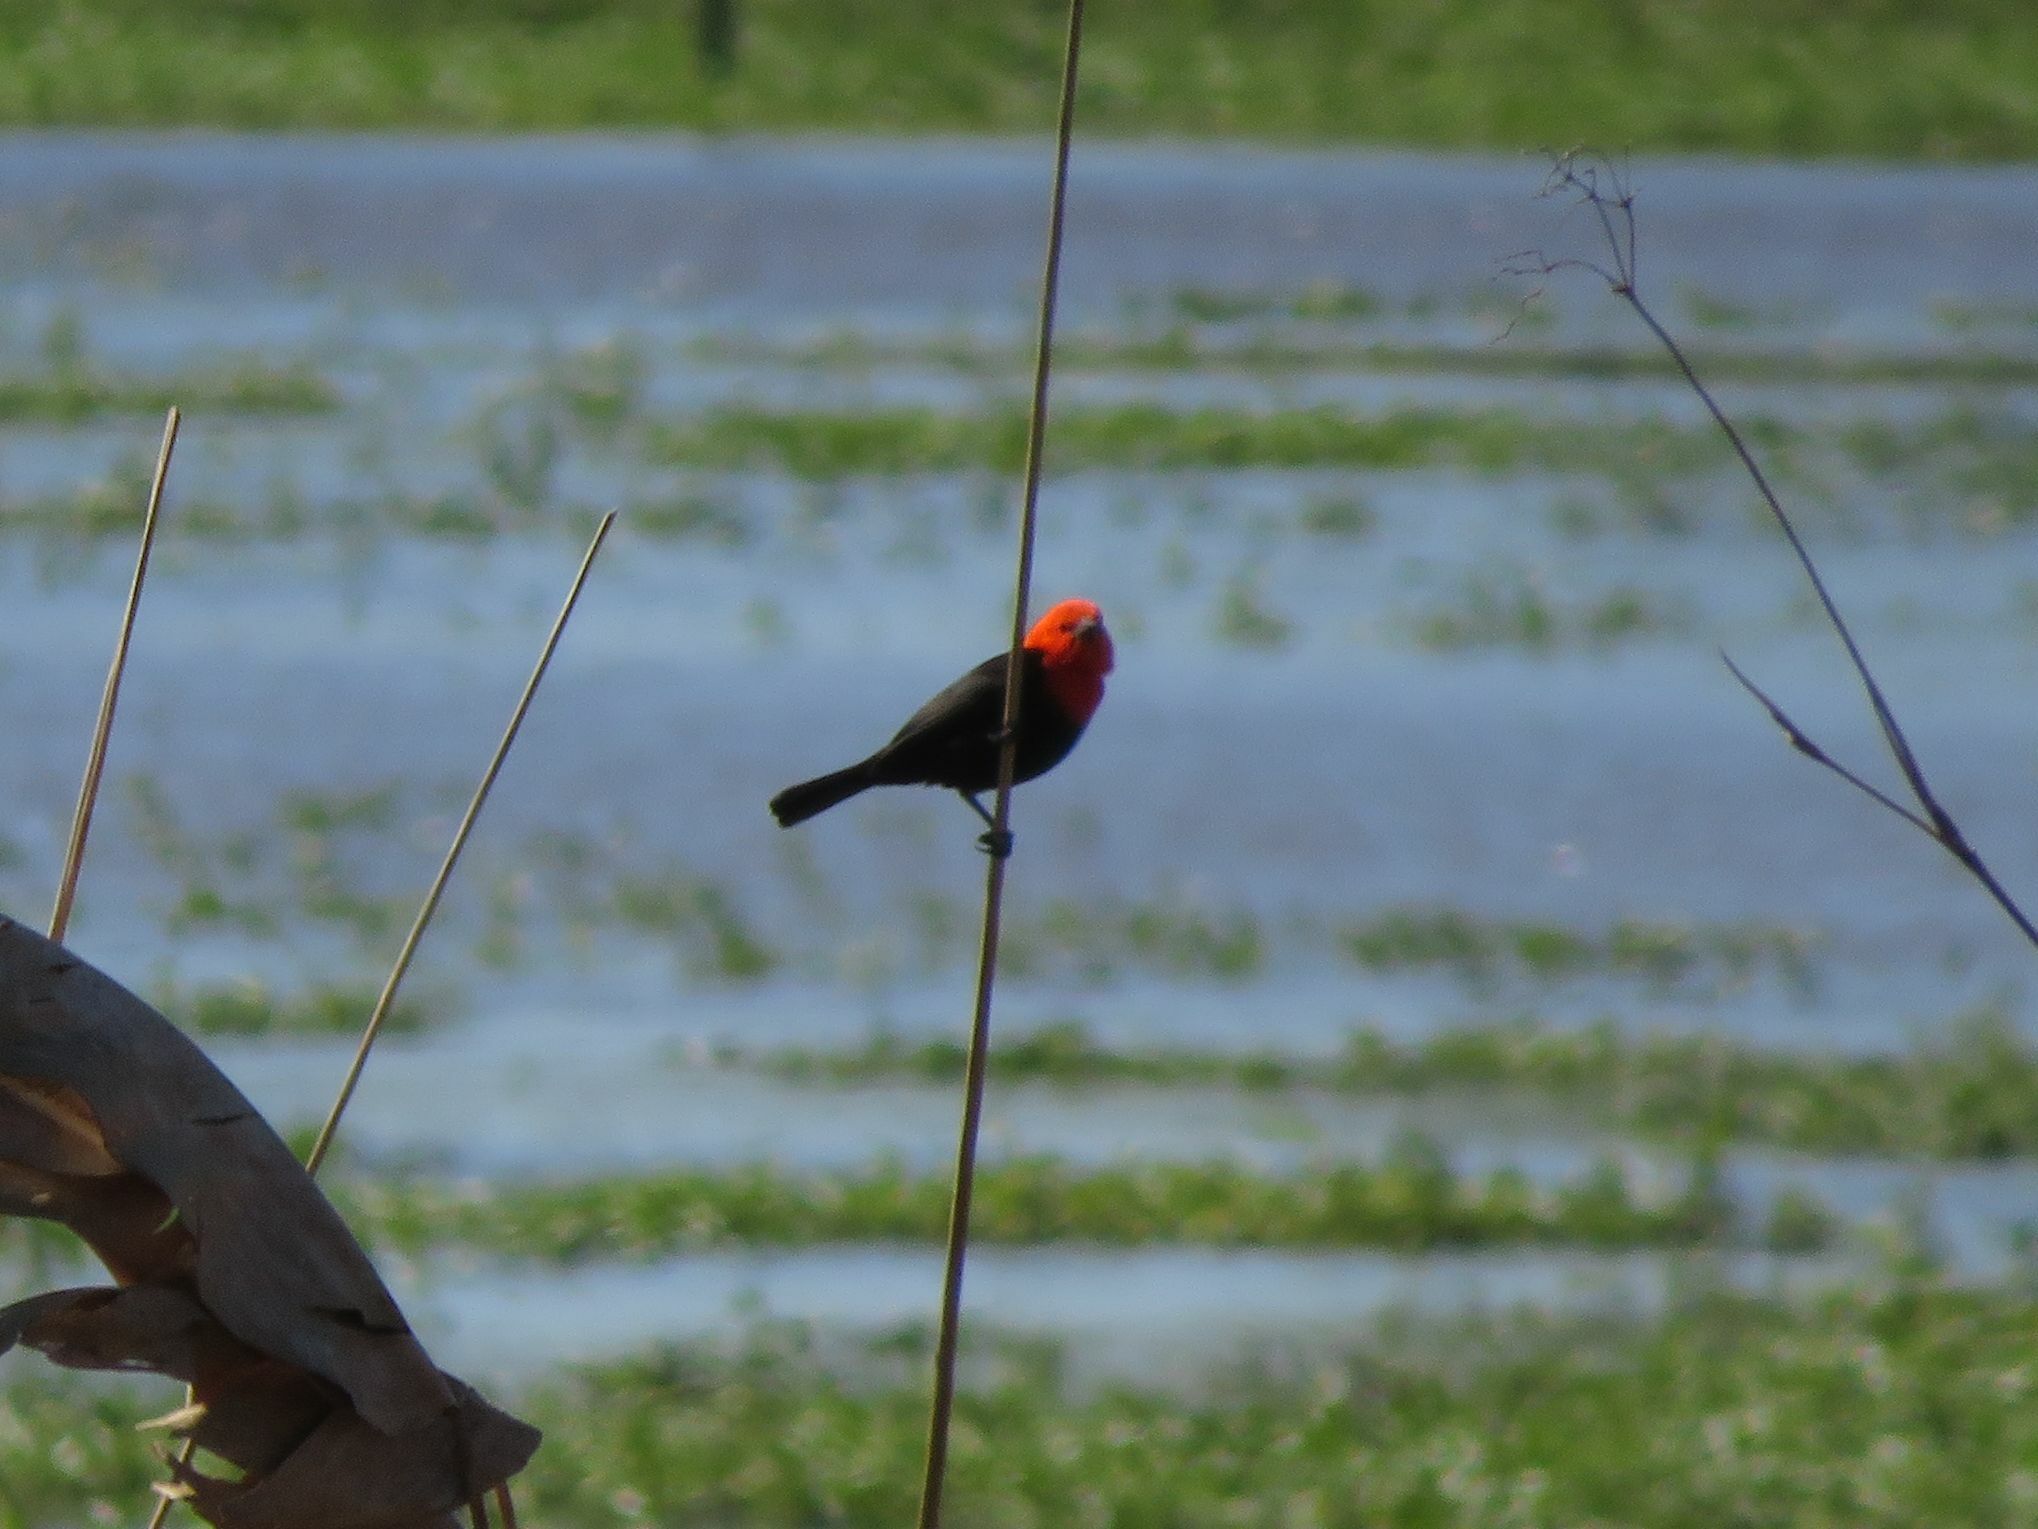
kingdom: Animalia
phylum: Chordata
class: Aves
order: Passeriformes
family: Icteridae
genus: Amblyramphus
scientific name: Amblyramphus holosericeus
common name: Scarlet-headed blackbird
